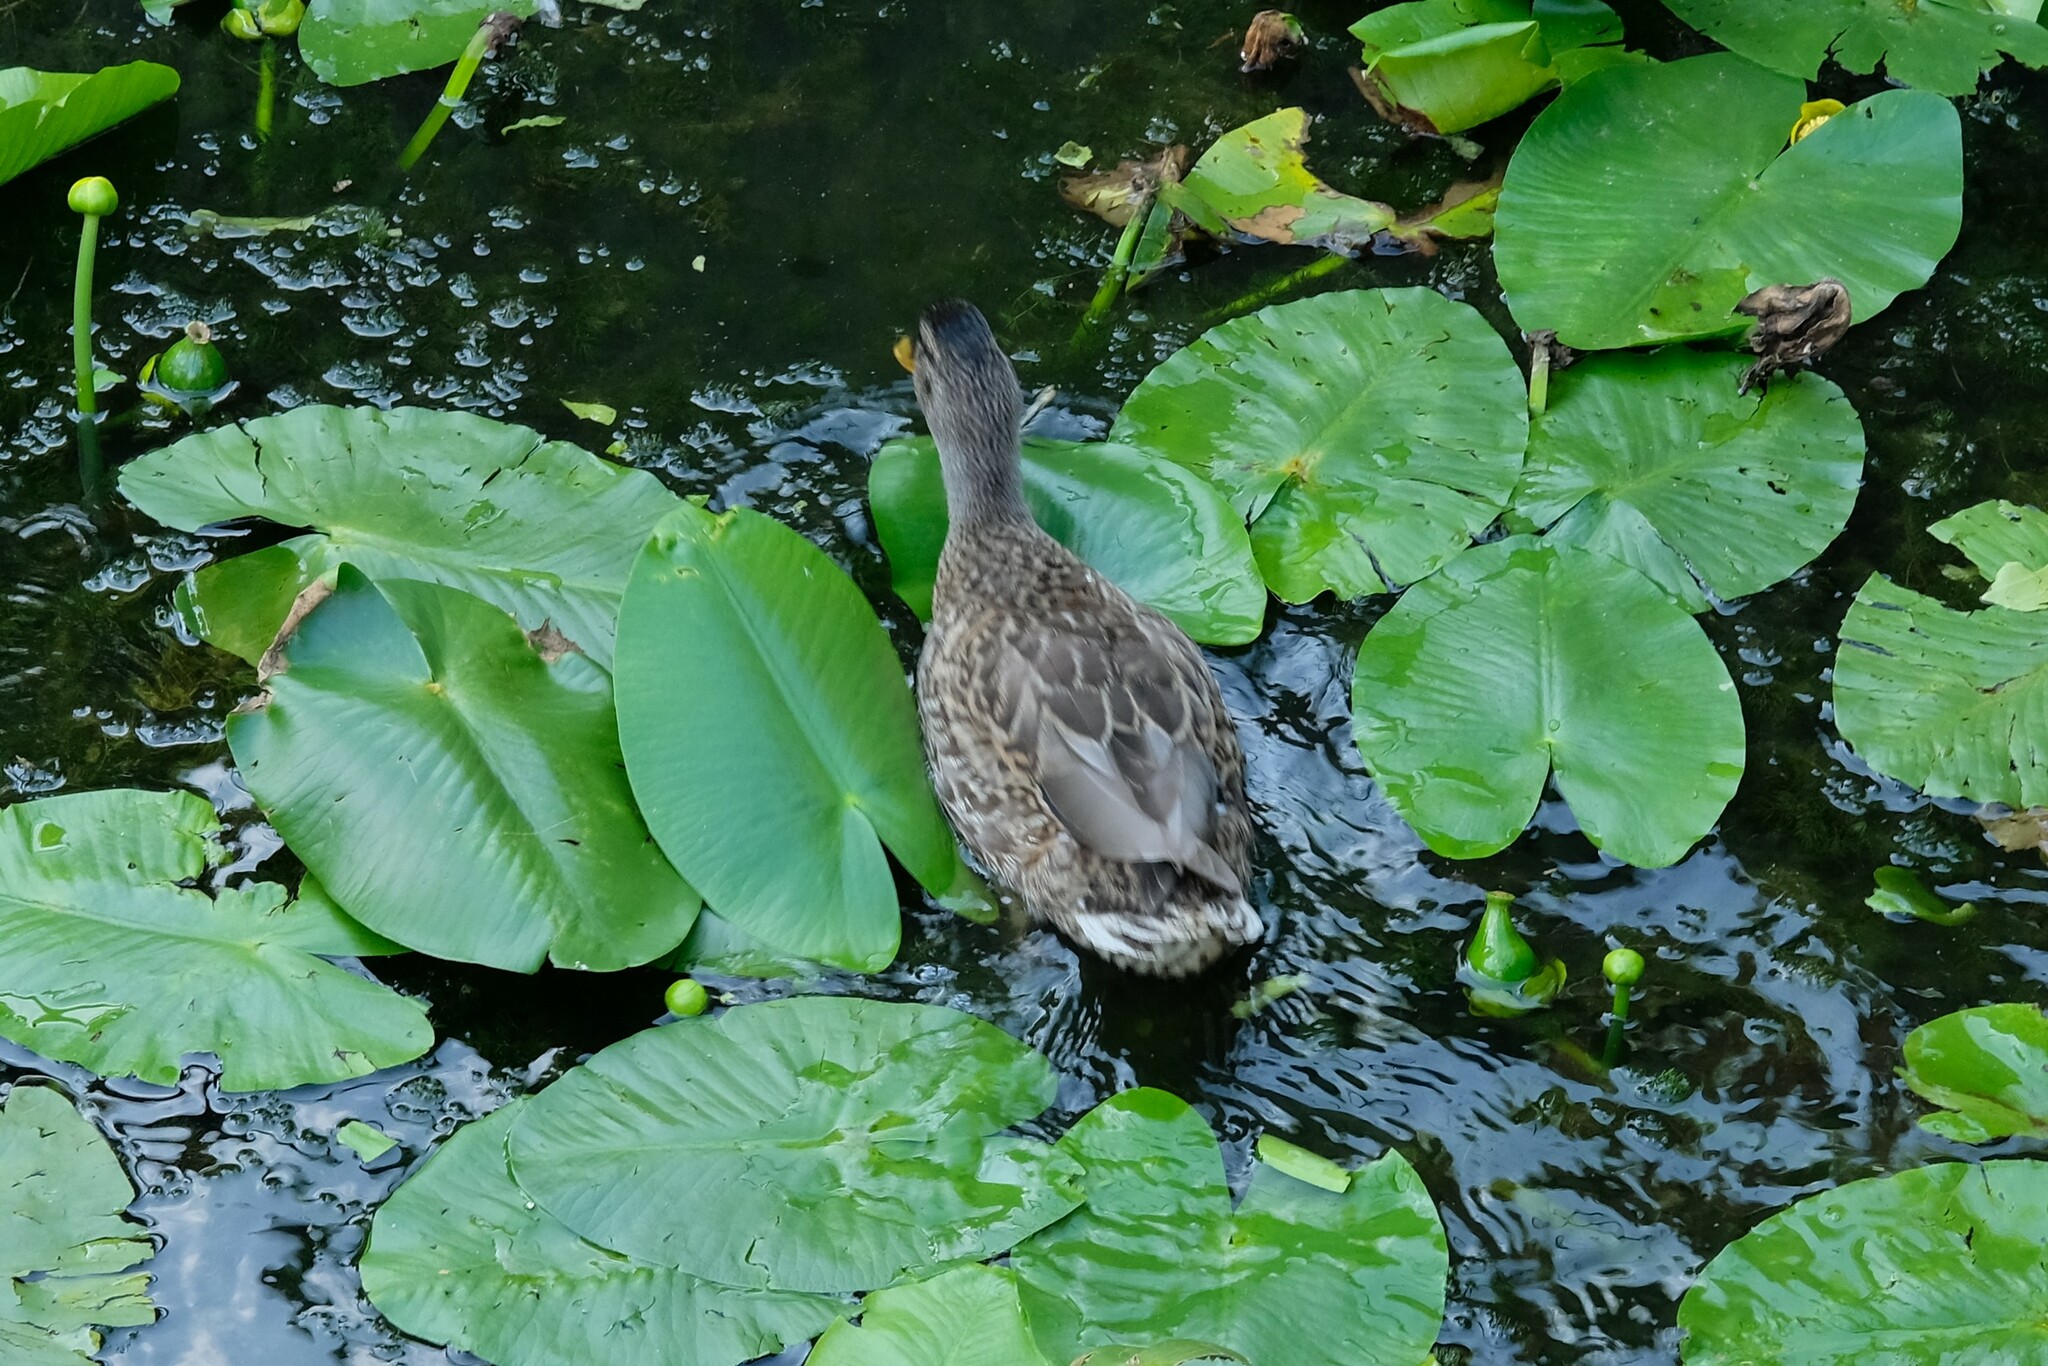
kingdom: Animalia
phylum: Chordata
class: Aves
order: Anseriformes
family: Anatidae
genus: Anas
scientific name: Anas platyrhynchos
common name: Mallard
